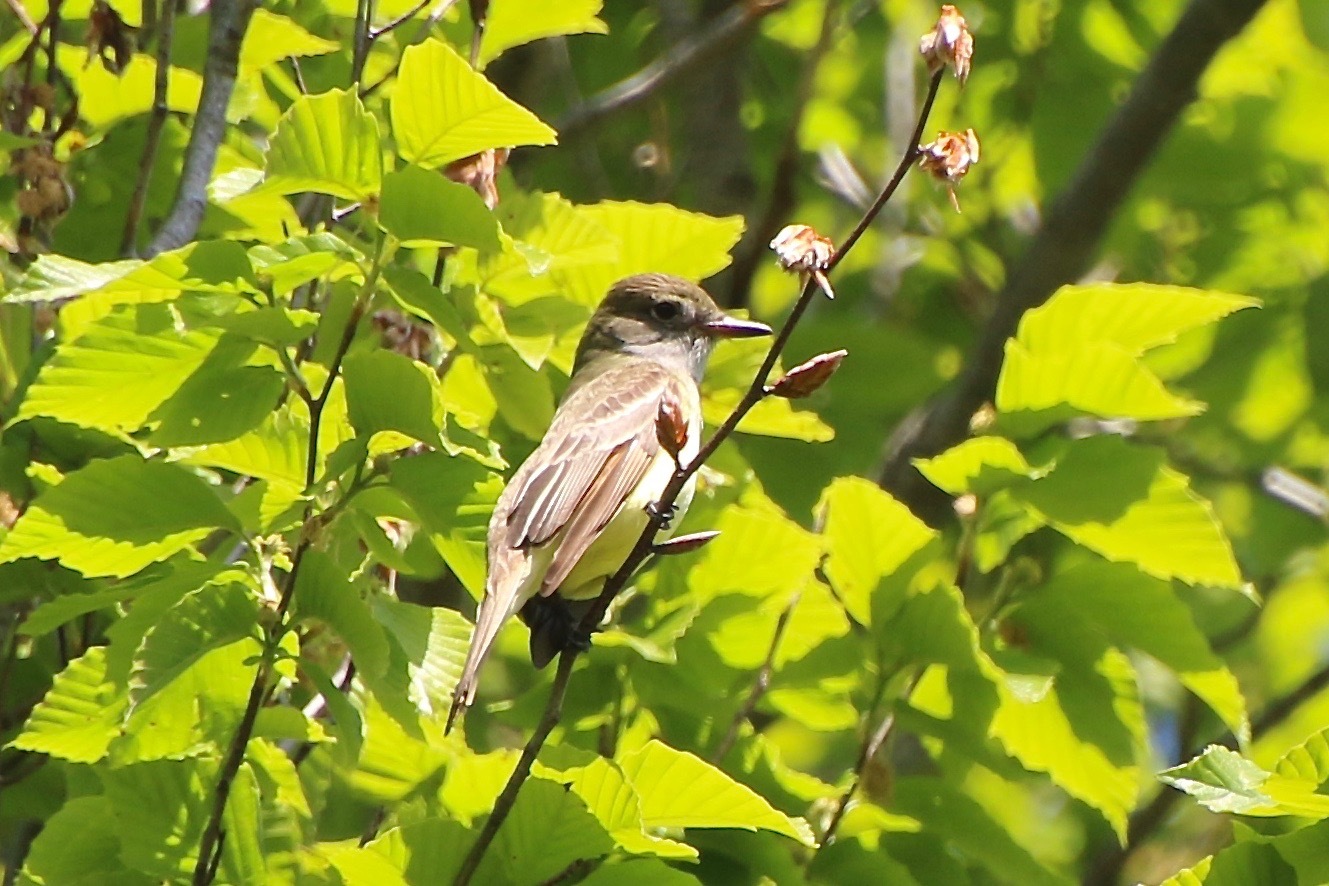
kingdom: Animalia
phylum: Chordata
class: Aves
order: Passeriformes
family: Tyrannidae
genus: Myiarchus
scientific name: Myiarchus crinitus
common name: Great crested flycatcher
